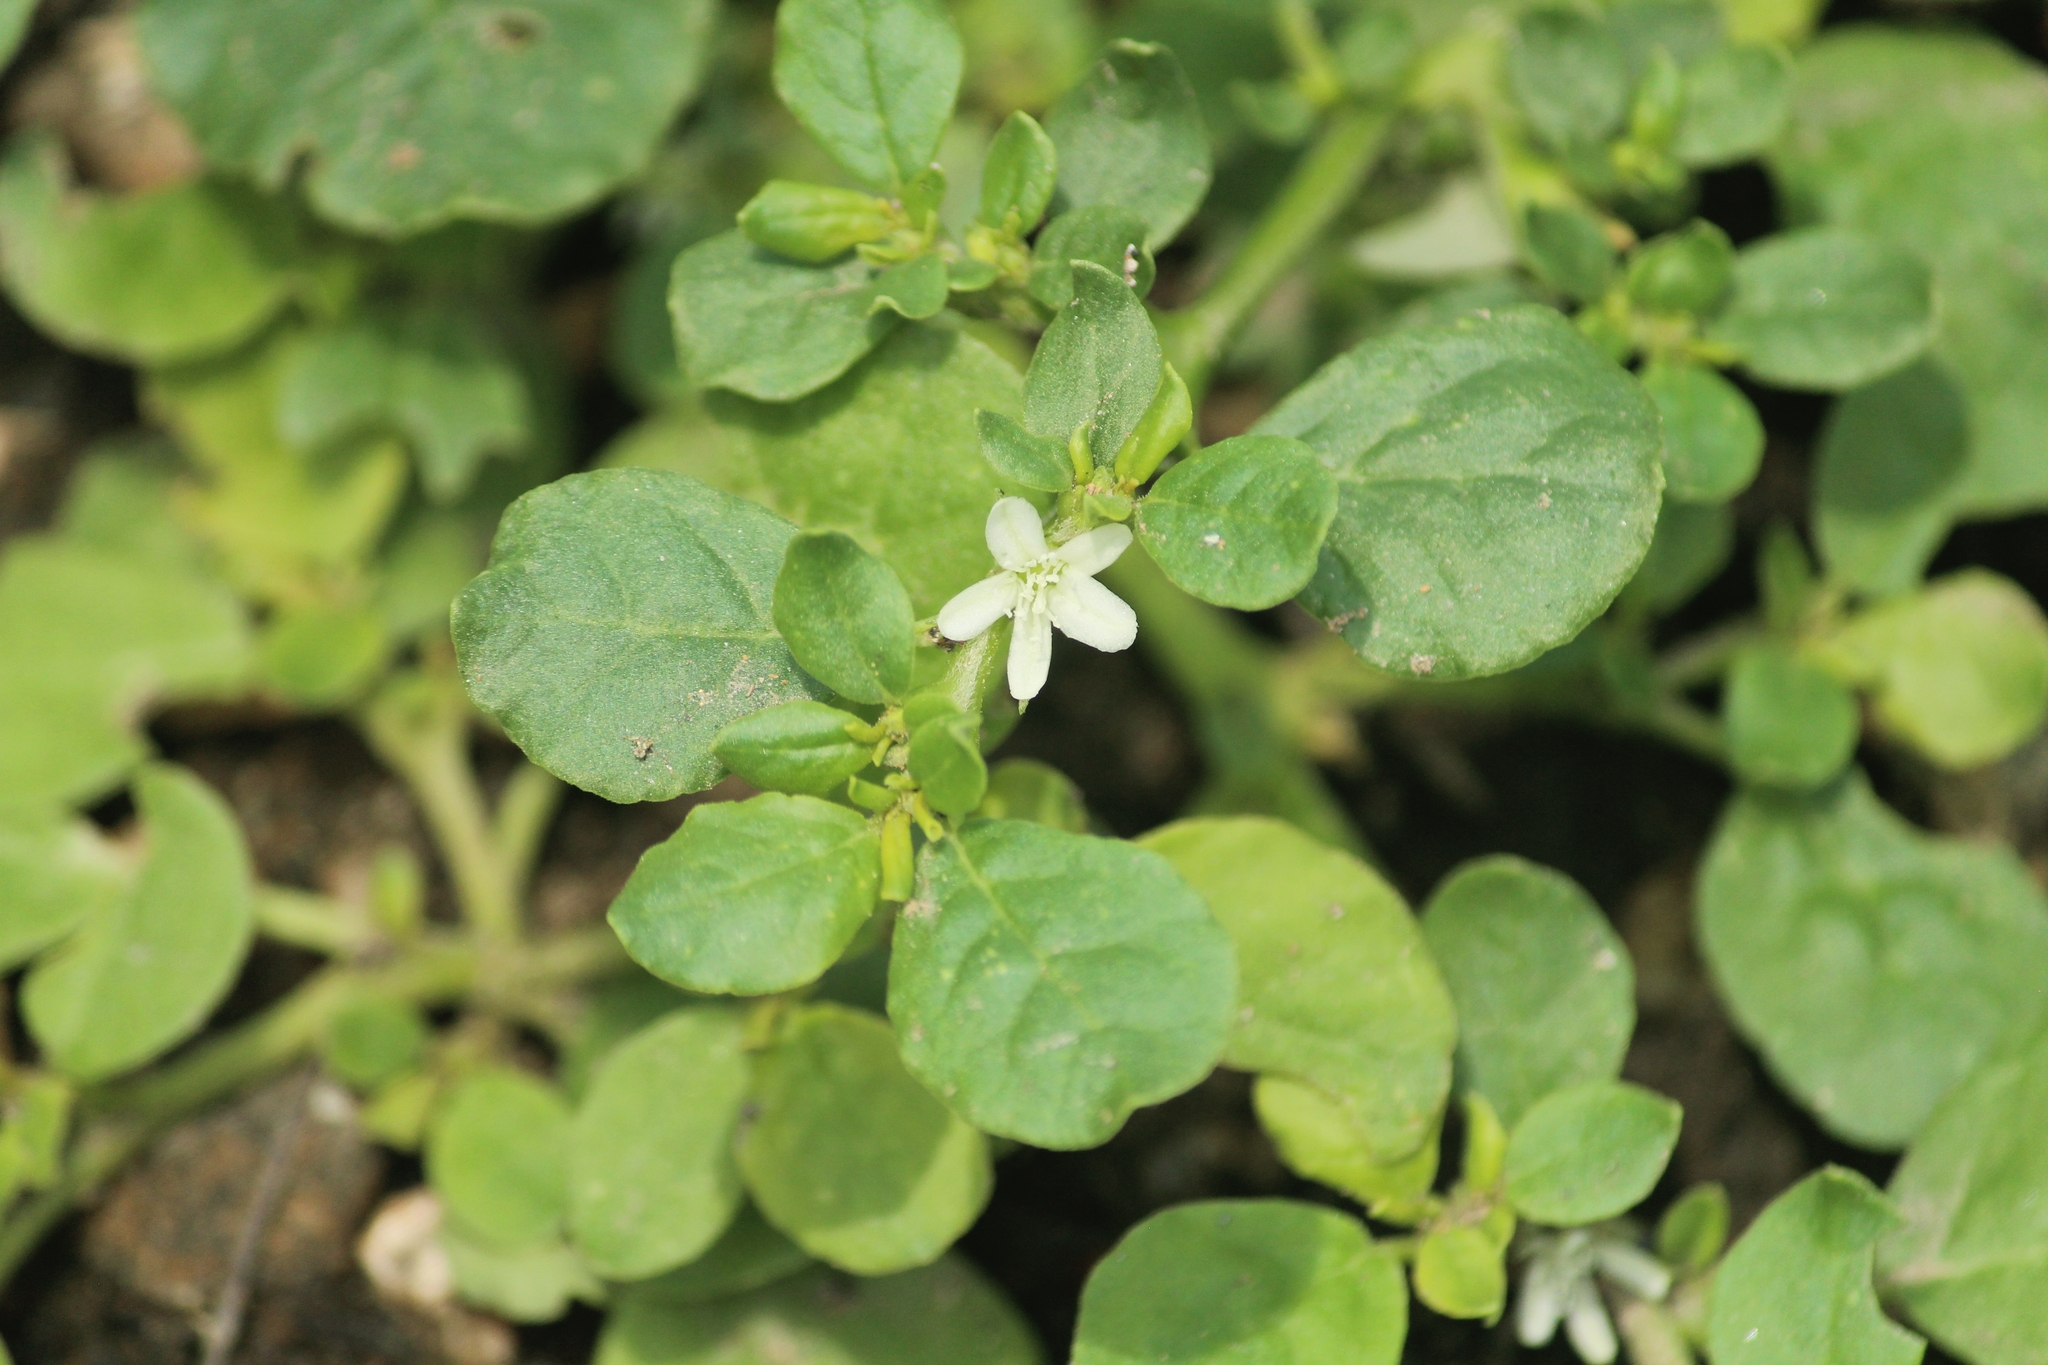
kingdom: Plantae
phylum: Tracheophyta
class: Magnoliopsida
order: Caryophyllales
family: Aizoaceae
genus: Trianthema
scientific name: Trianthema portulacastrum
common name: Desert horsepurslane
